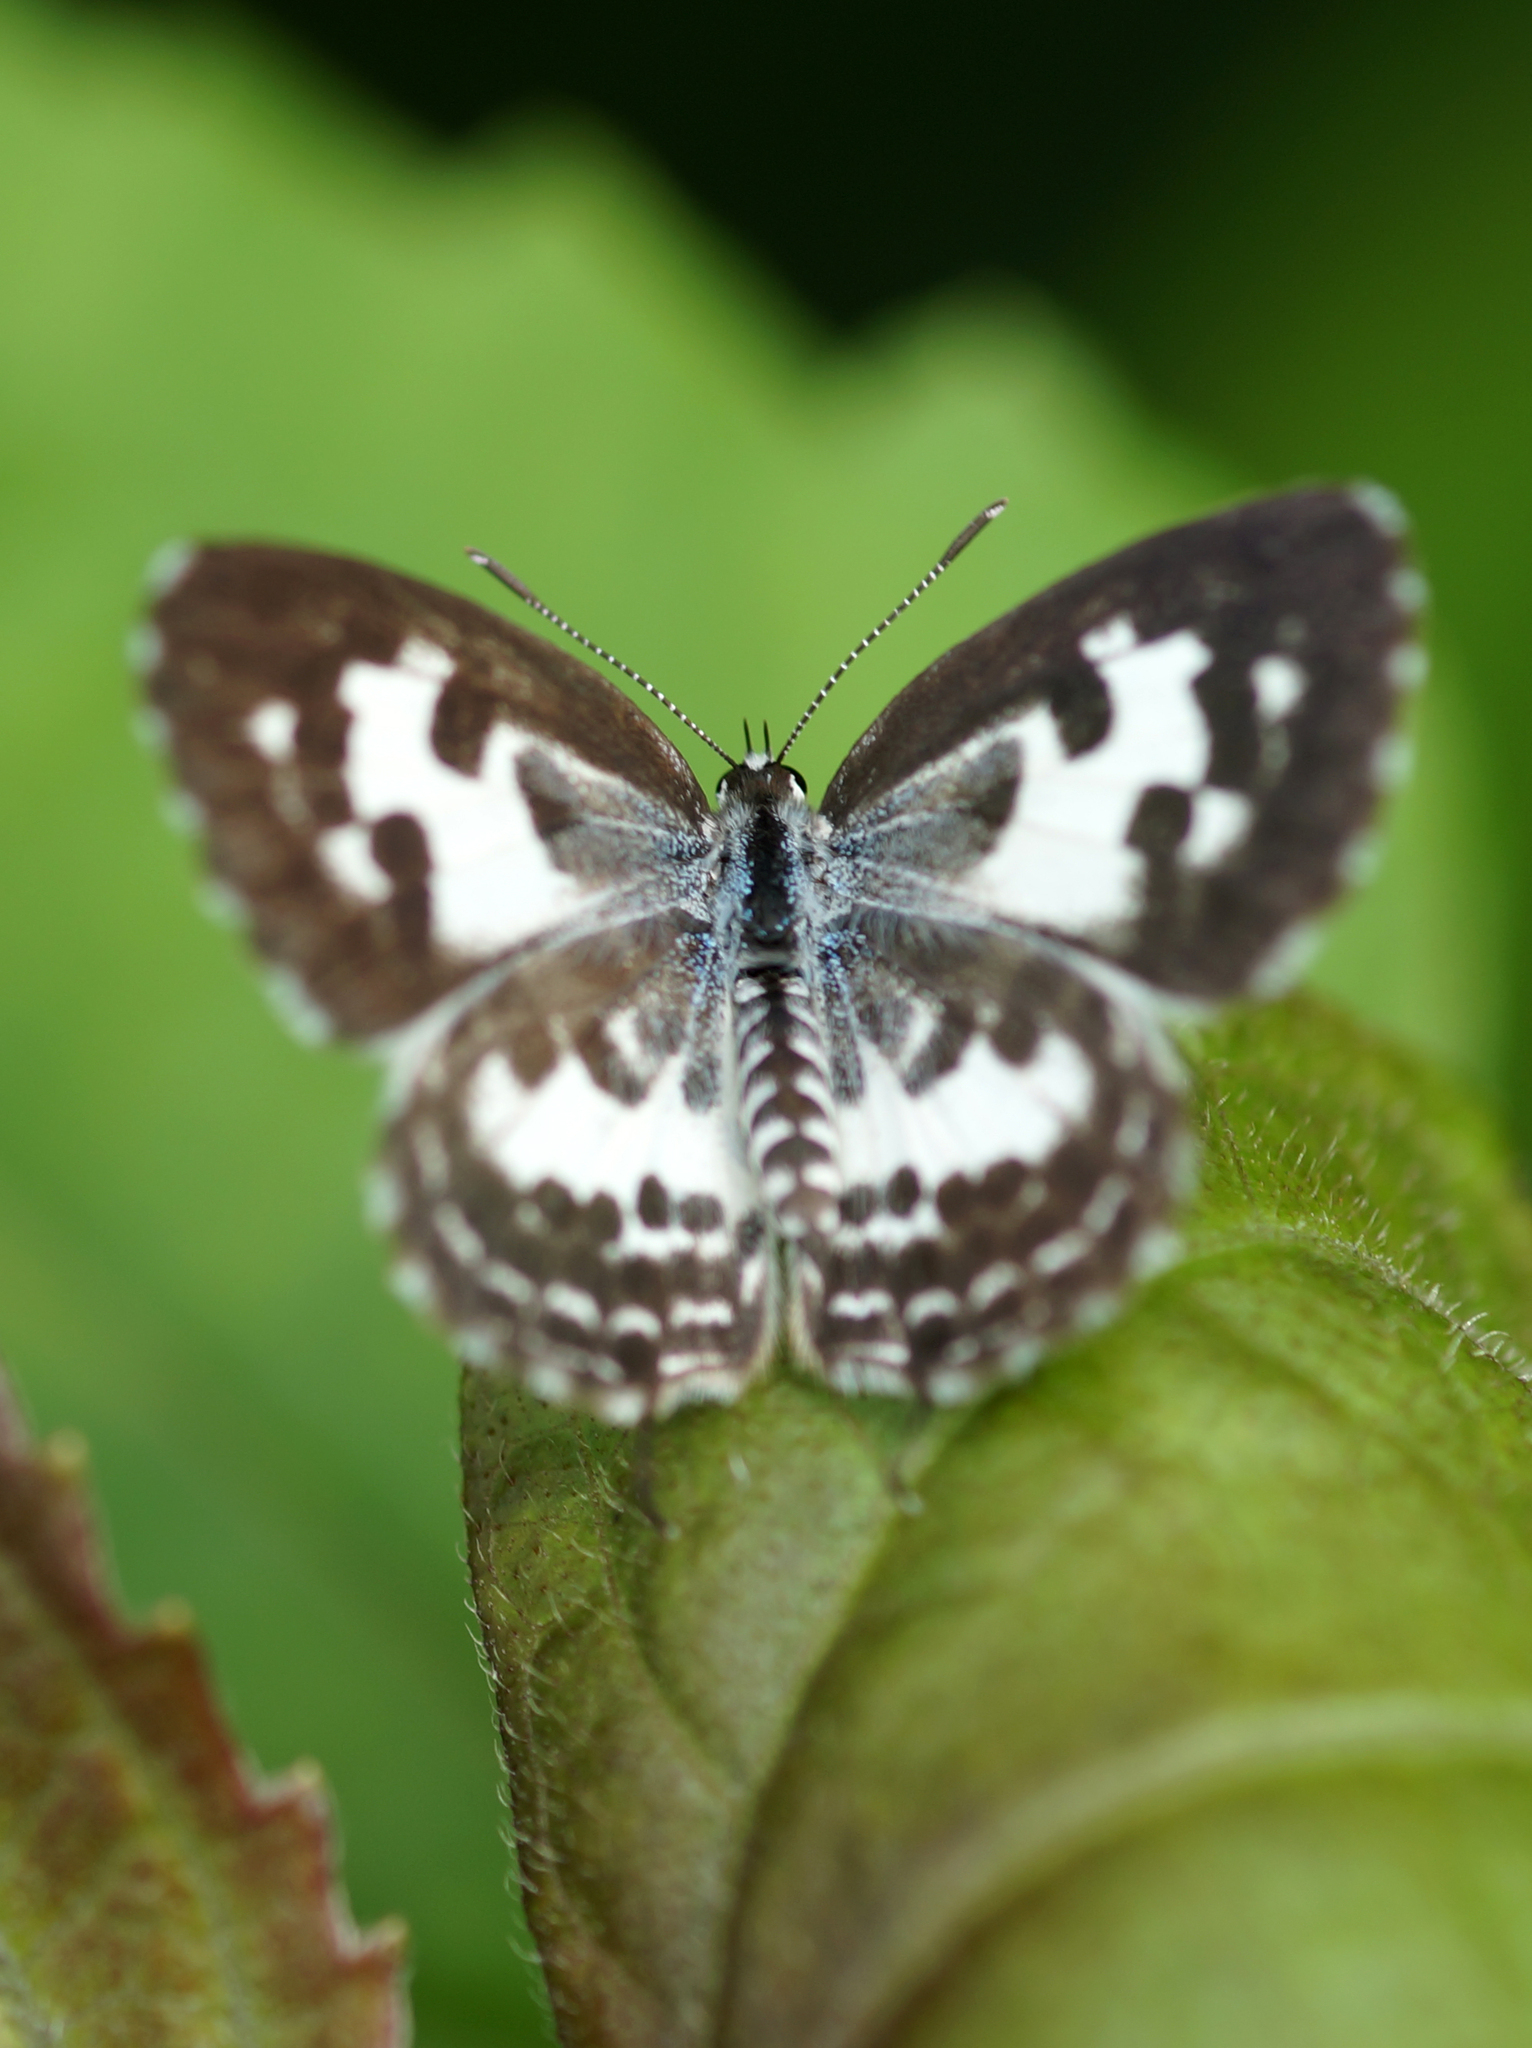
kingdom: Animalia
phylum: Arthropoda
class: Insecta
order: Lepidoptera
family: Lycaenidae
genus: Castalius
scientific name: Castalius rosimon
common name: Common pierrot
